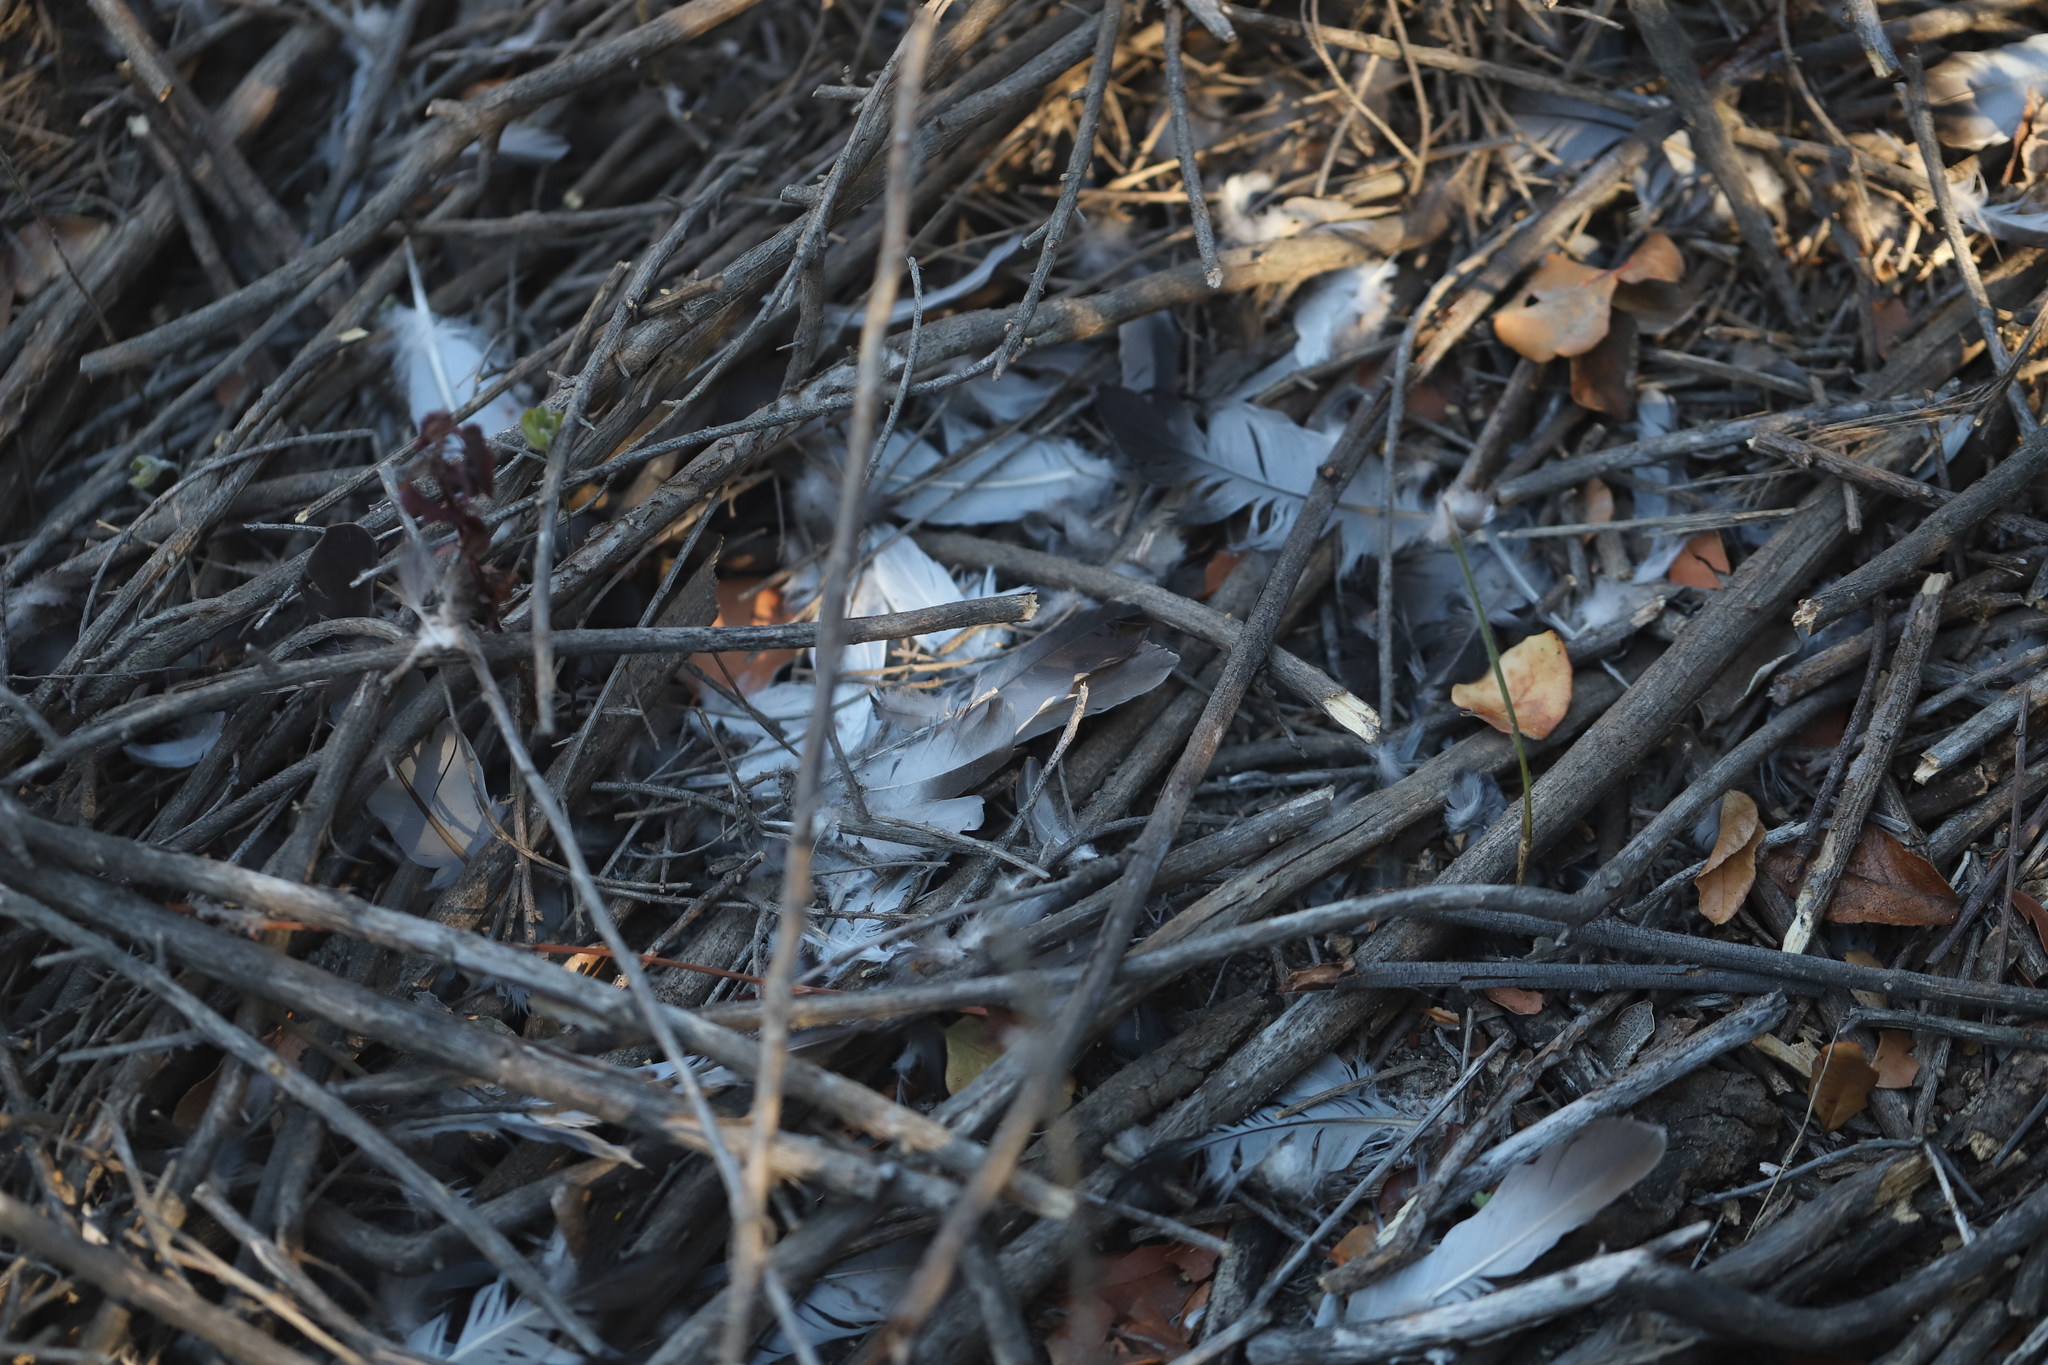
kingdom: Animalia
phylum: Chordata
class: Aves
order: Columbiformes
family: Columbidae
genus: Columba
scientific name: Columba livia
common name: Rock pigeon
